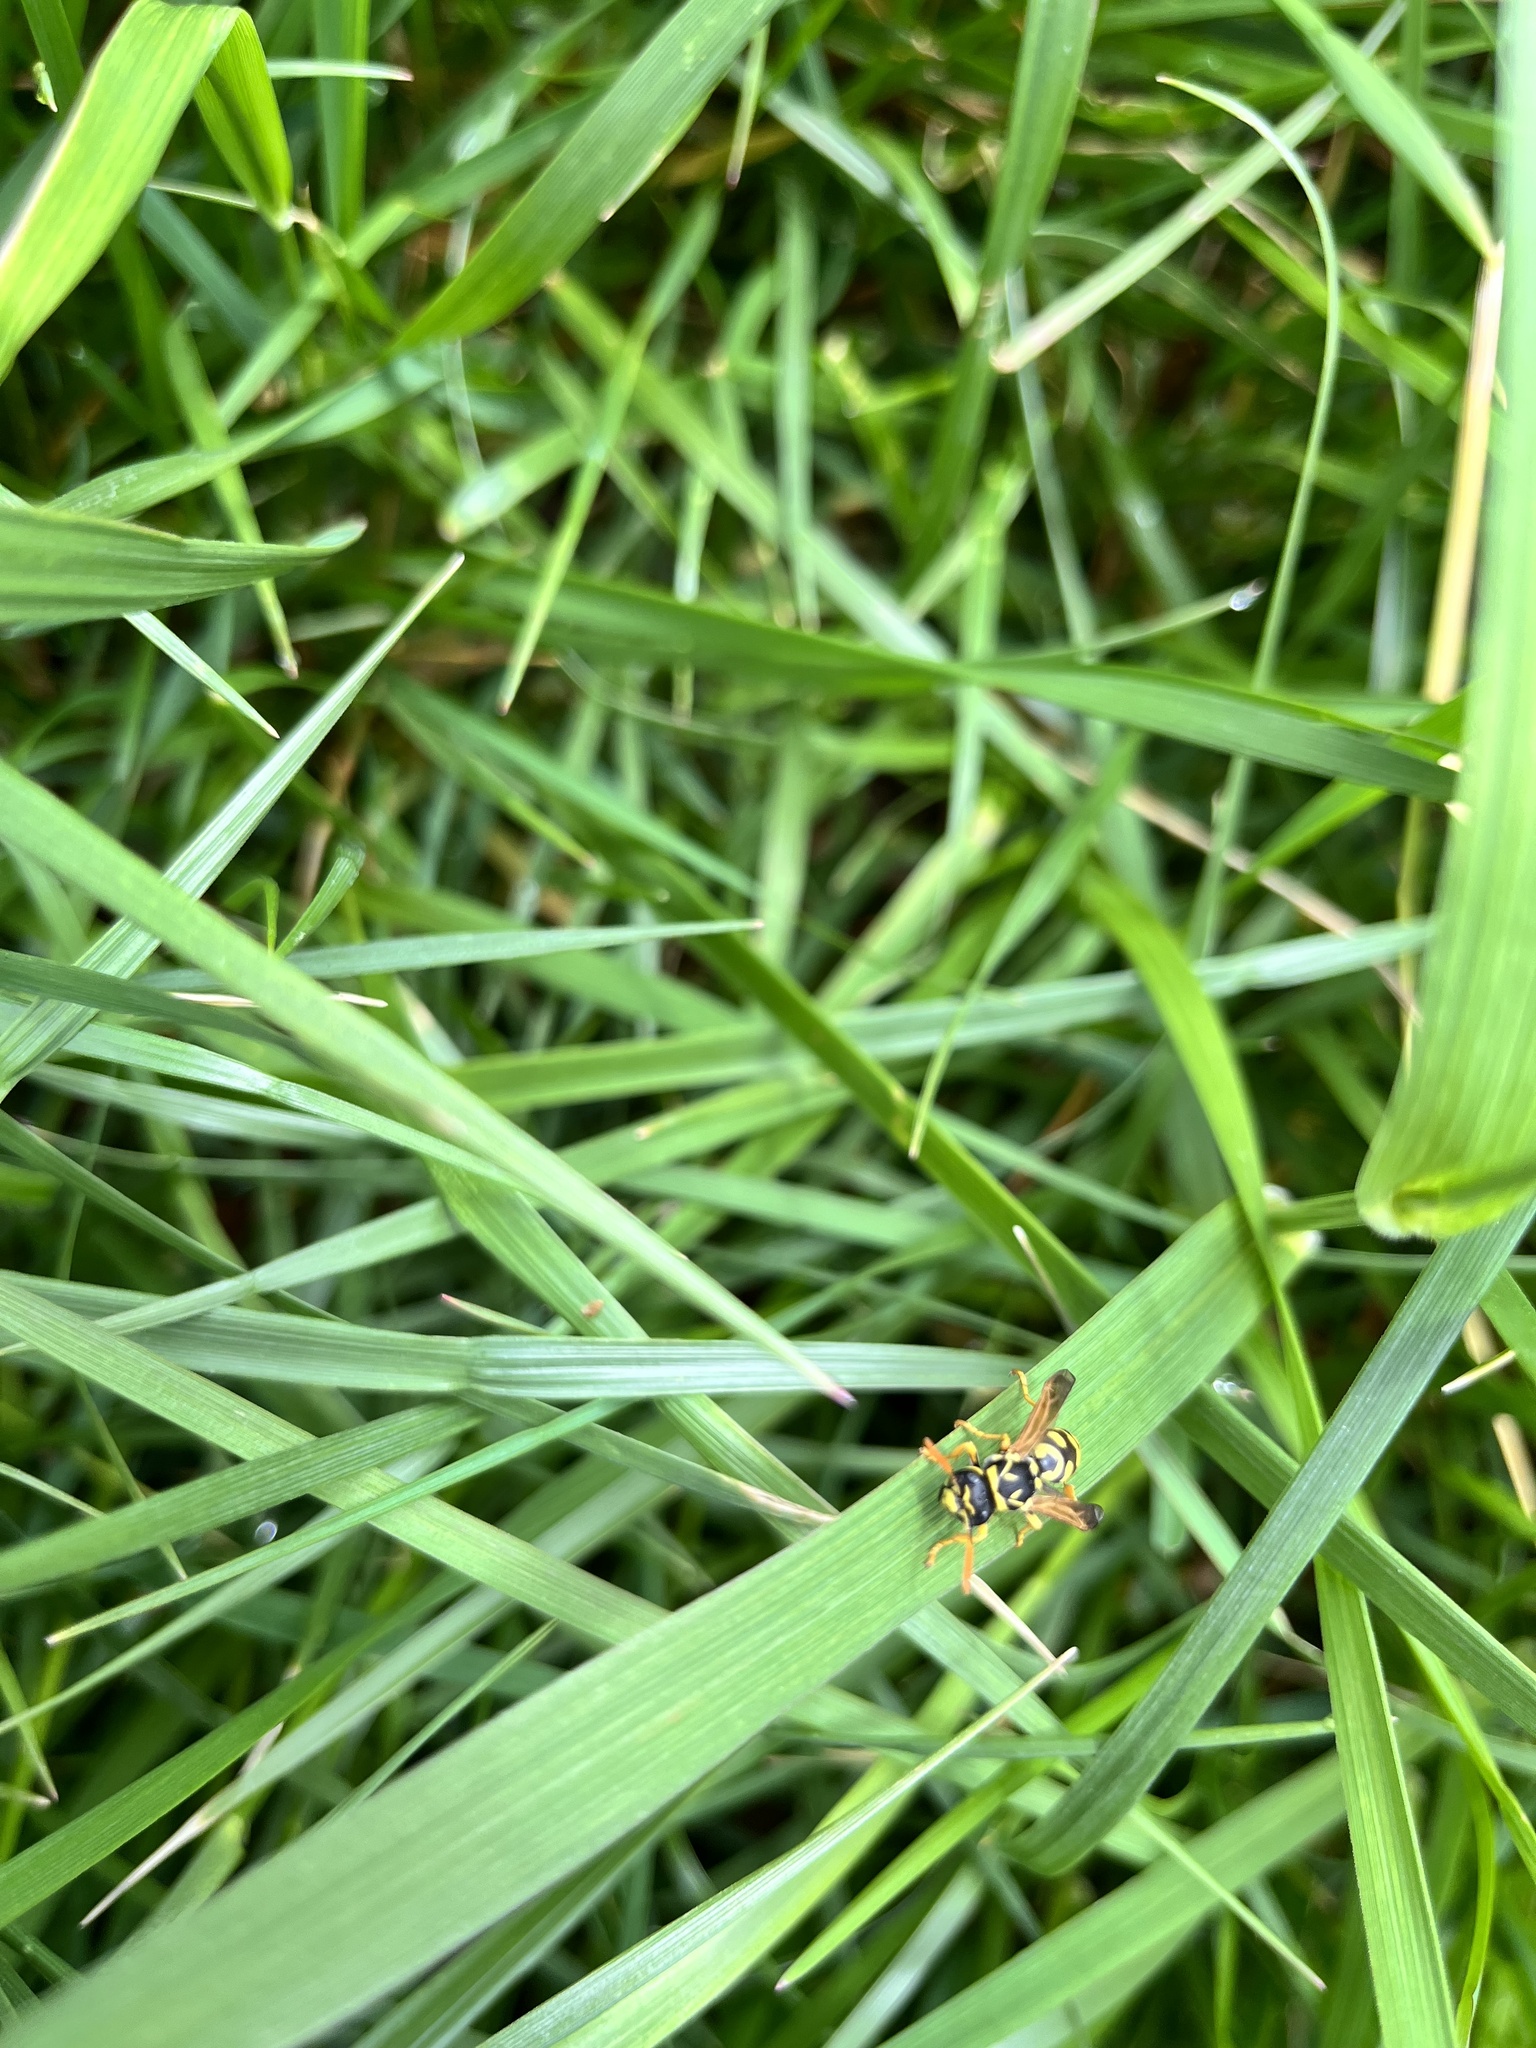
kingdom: Animalia
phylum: Arthropoda
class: Insecta
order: Hymenoptera
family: Eumenidae
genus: Polistes
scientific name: Polistes dominula
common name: Paper wasp
